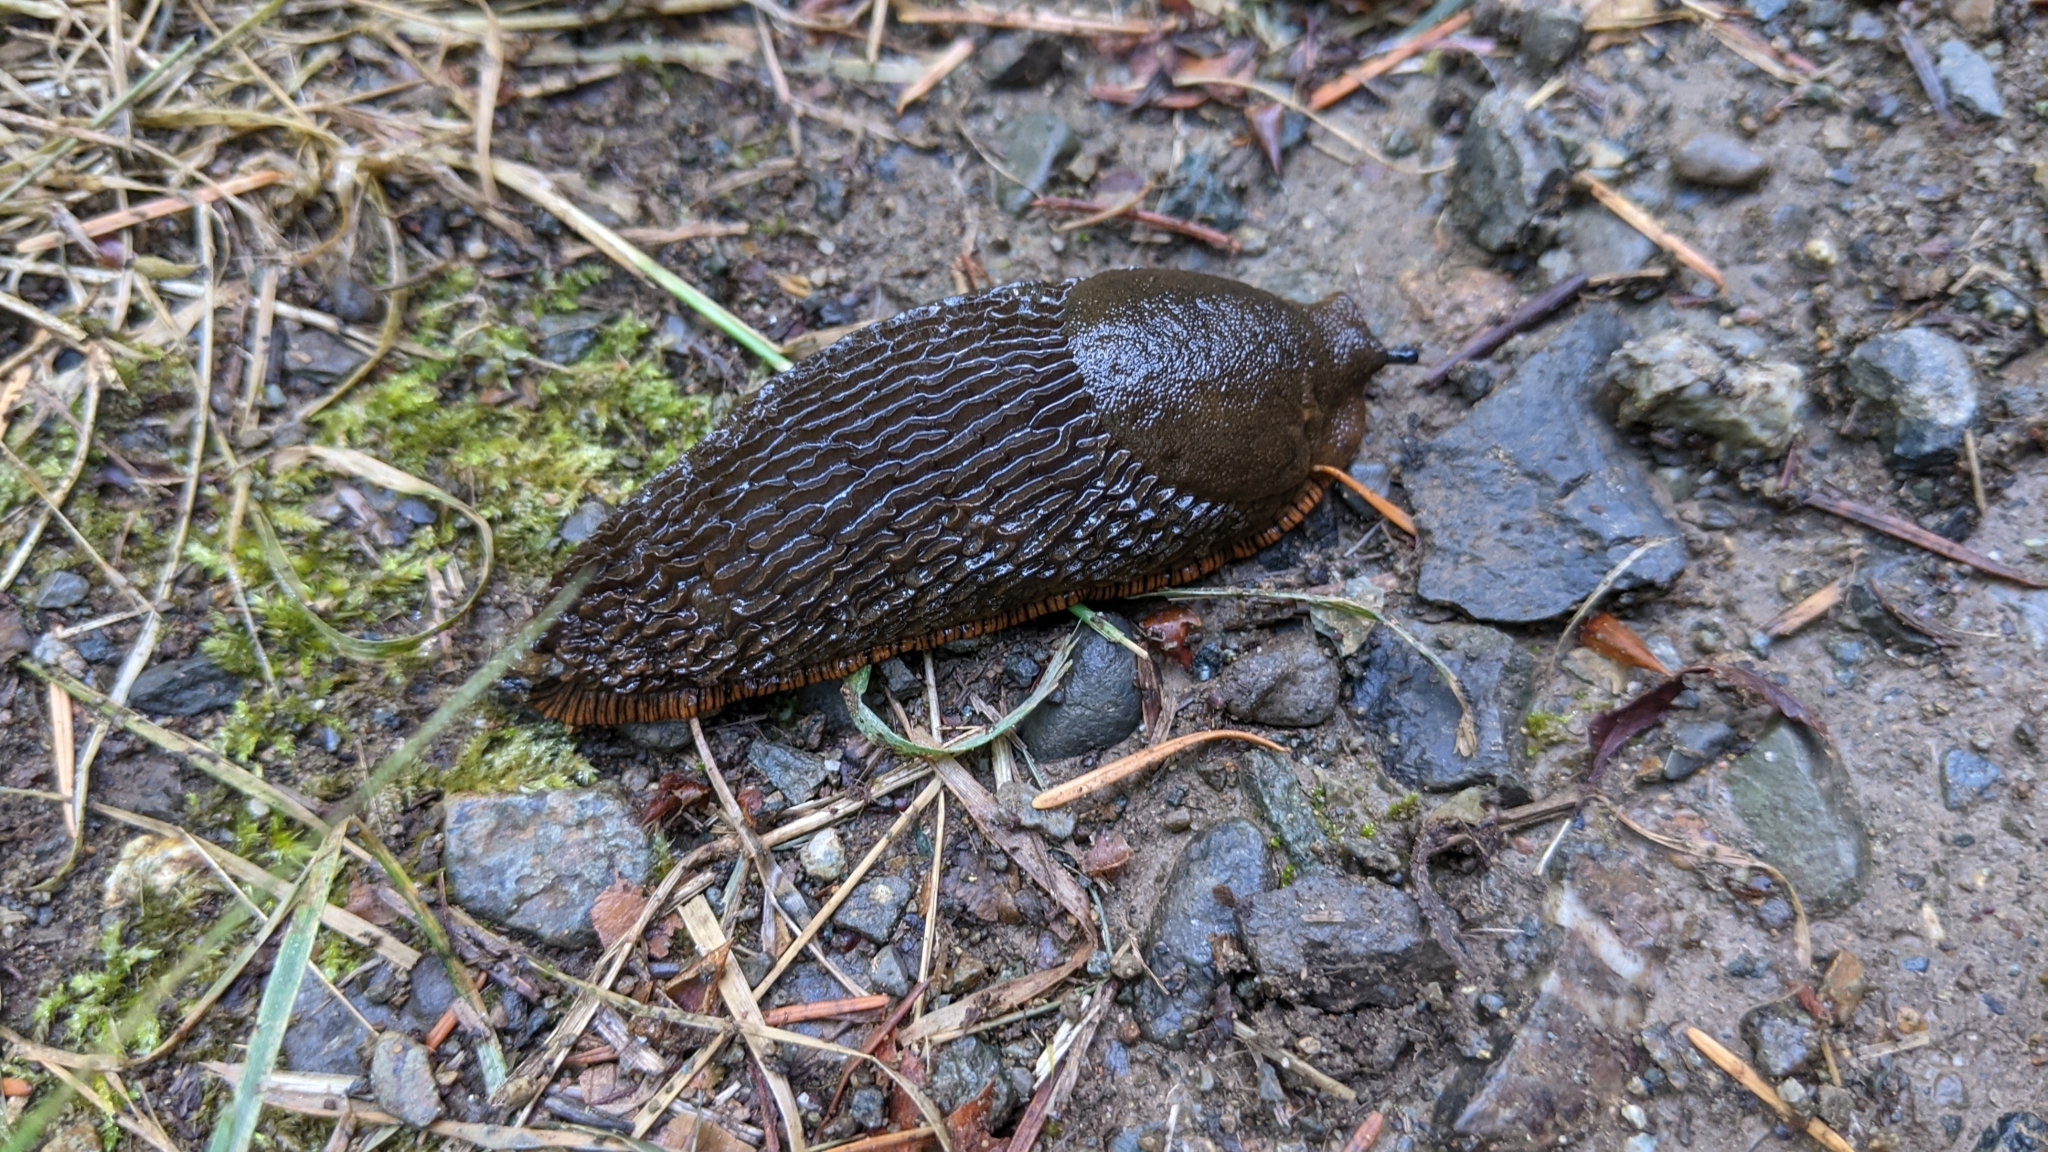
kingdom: Animalia
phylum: Mollusca
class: Gastropoda
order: Stylommatophora
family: Arionidae
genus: Arion
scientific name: Arion rufus
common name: Chocolate arion
